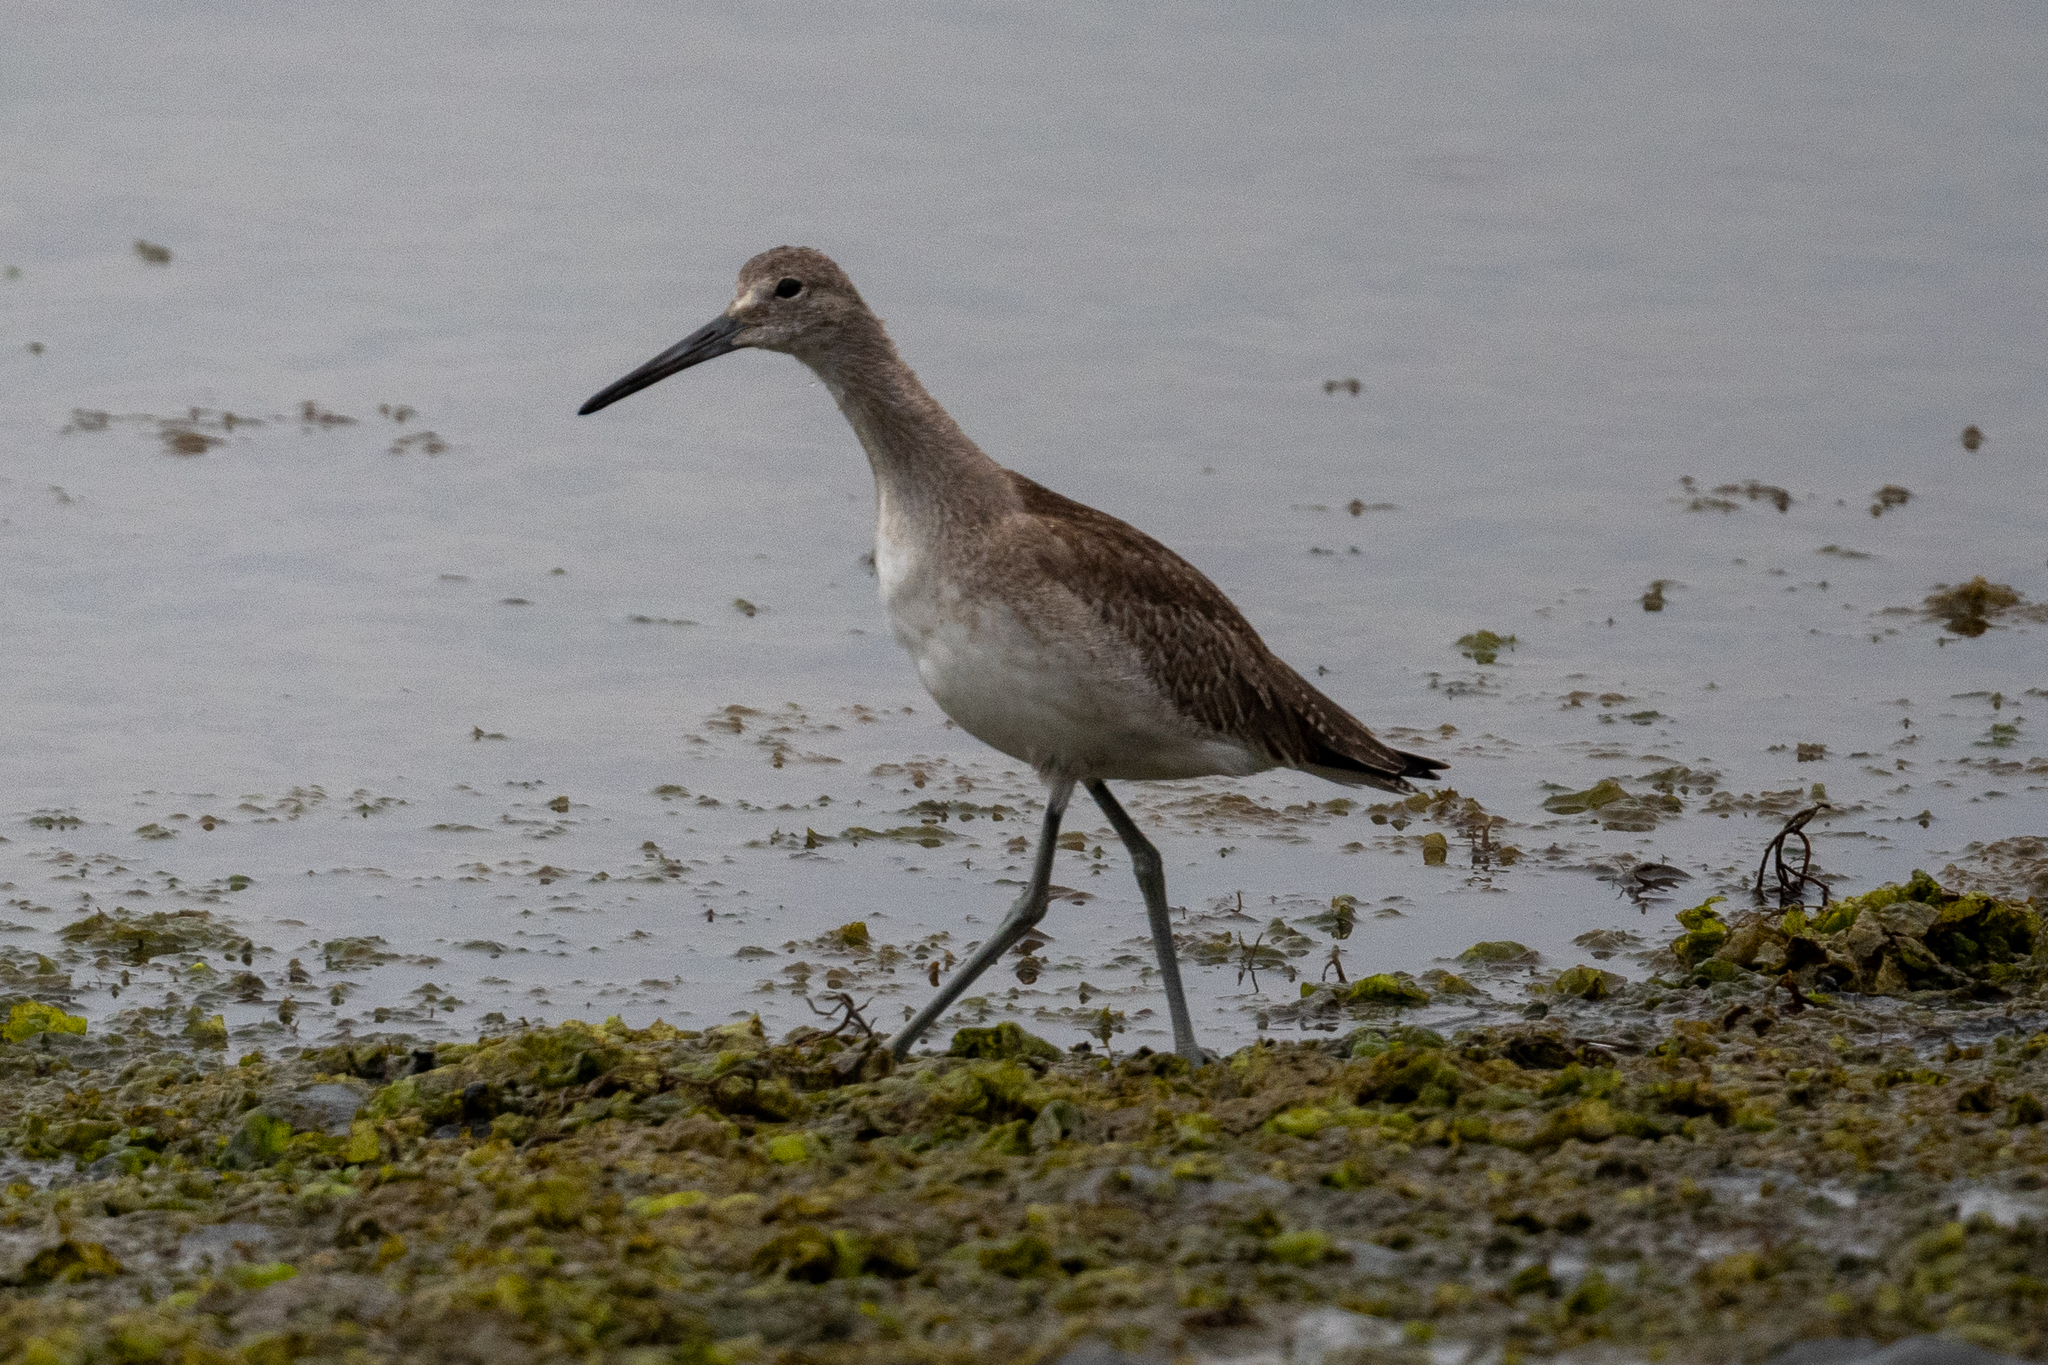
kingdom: Animalia
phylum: Chordata
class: Aves
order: Charadriiformes
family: Scolopacidae
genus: Tringa
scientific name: Tringa semipalmata
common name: Willet
